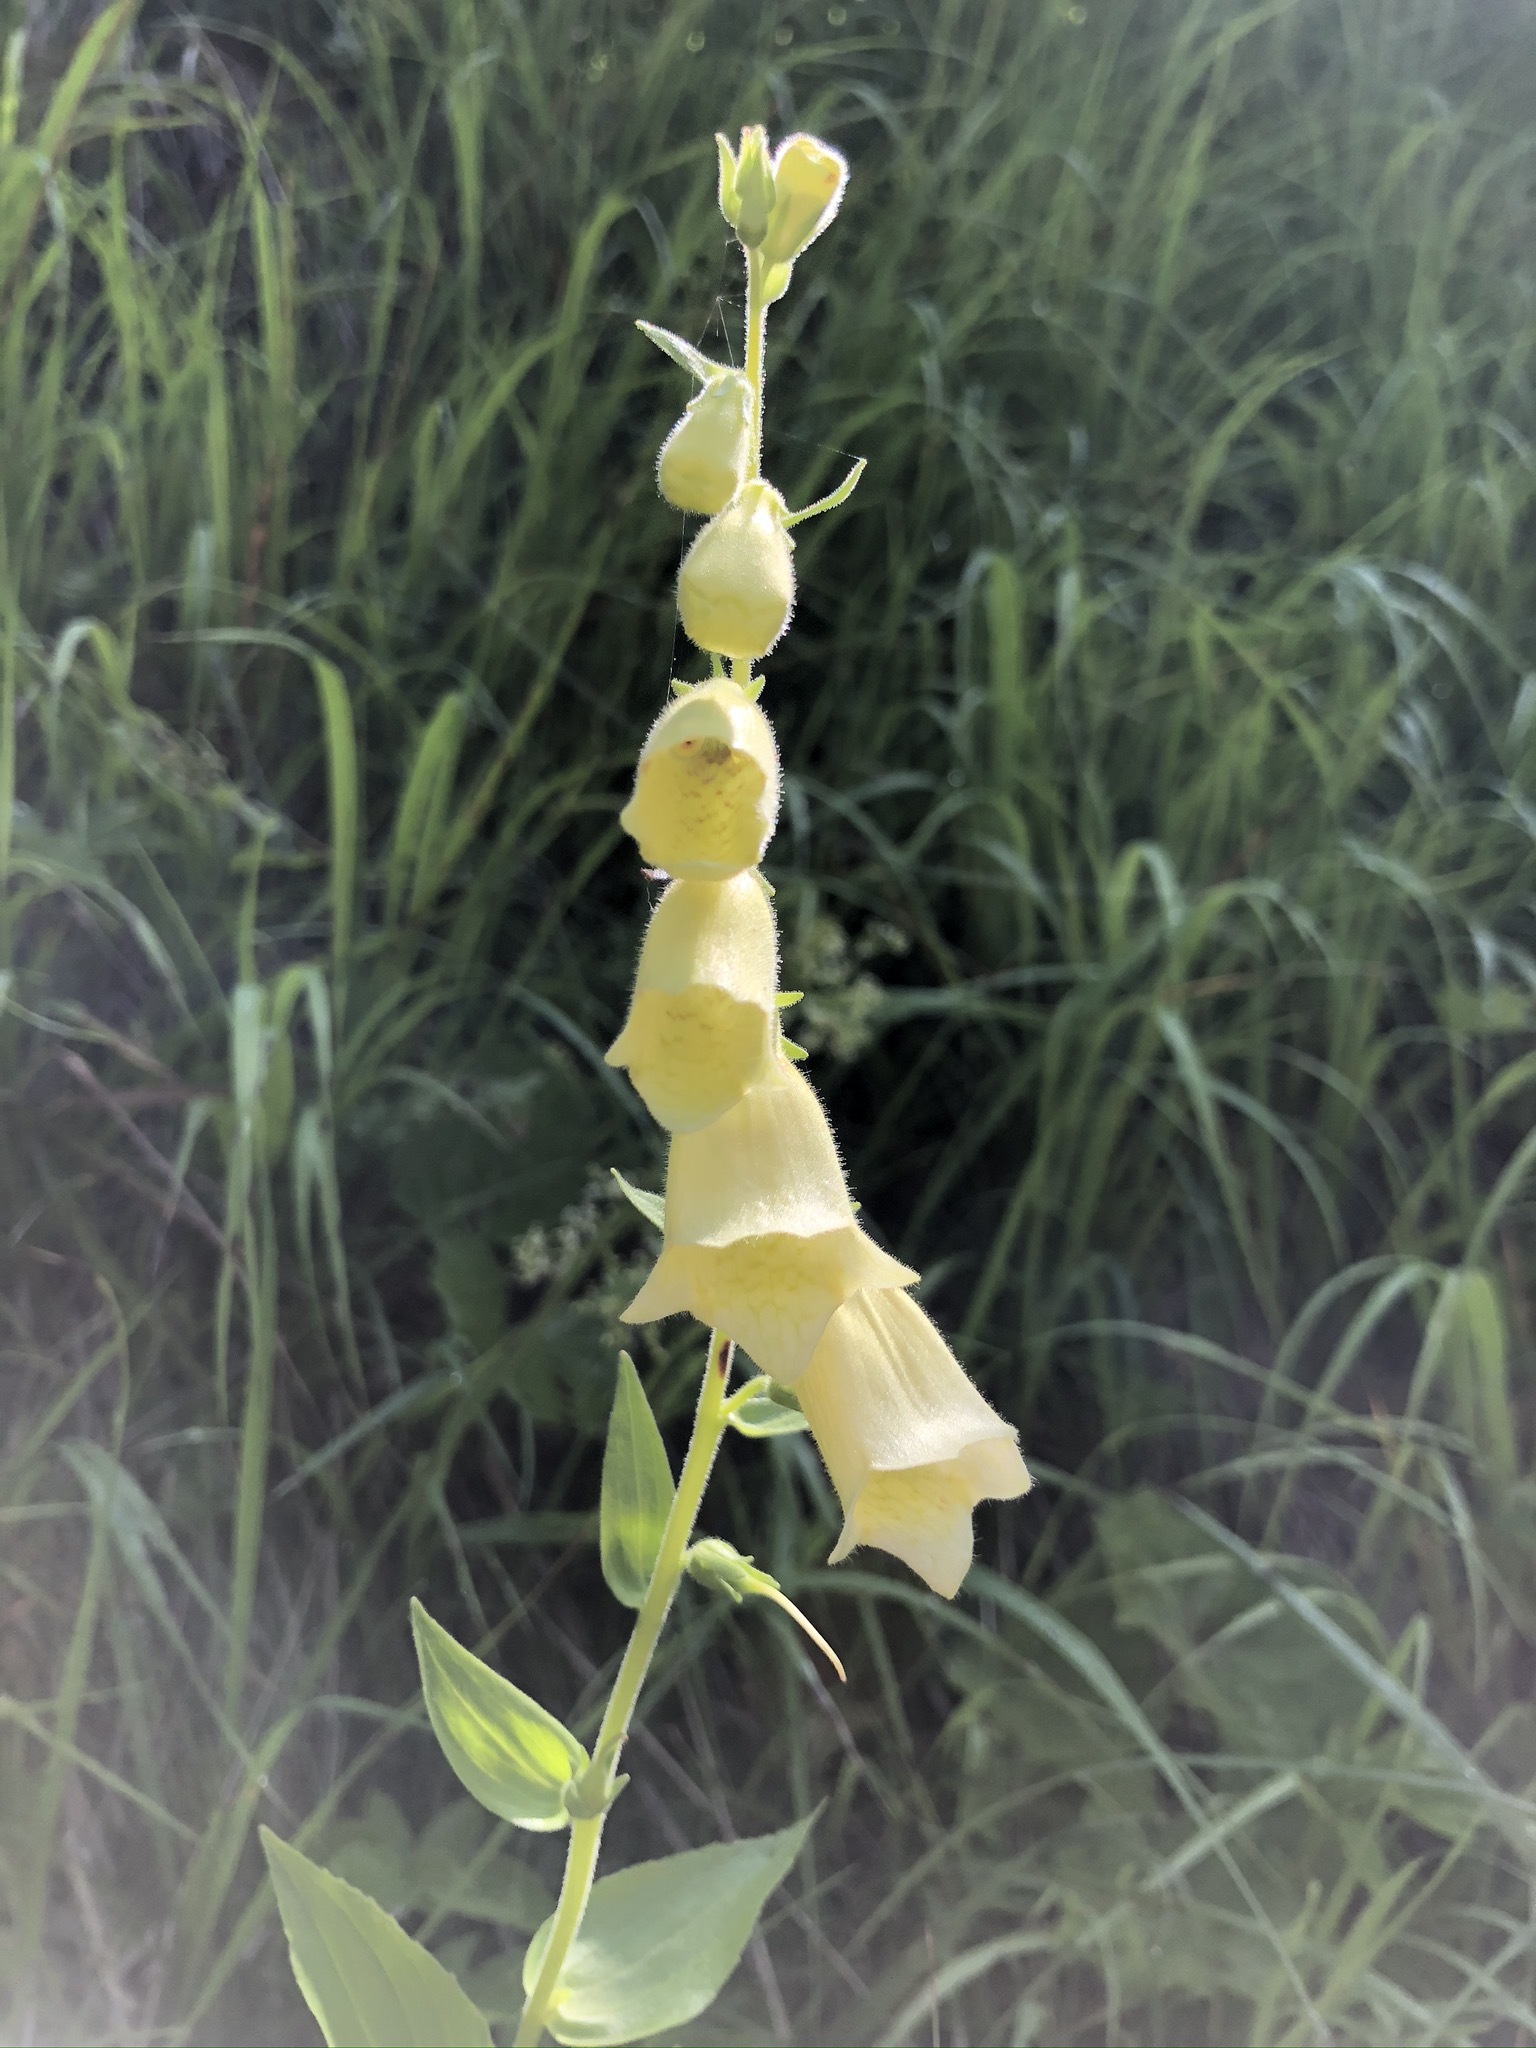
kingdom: Plantae
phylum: Tracheophyta
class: Magnoliopsida
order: Lamiales
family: Plantaginaceae
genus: Digitalis
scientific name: Digitalis grandiflora
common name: Yellow foxglove
